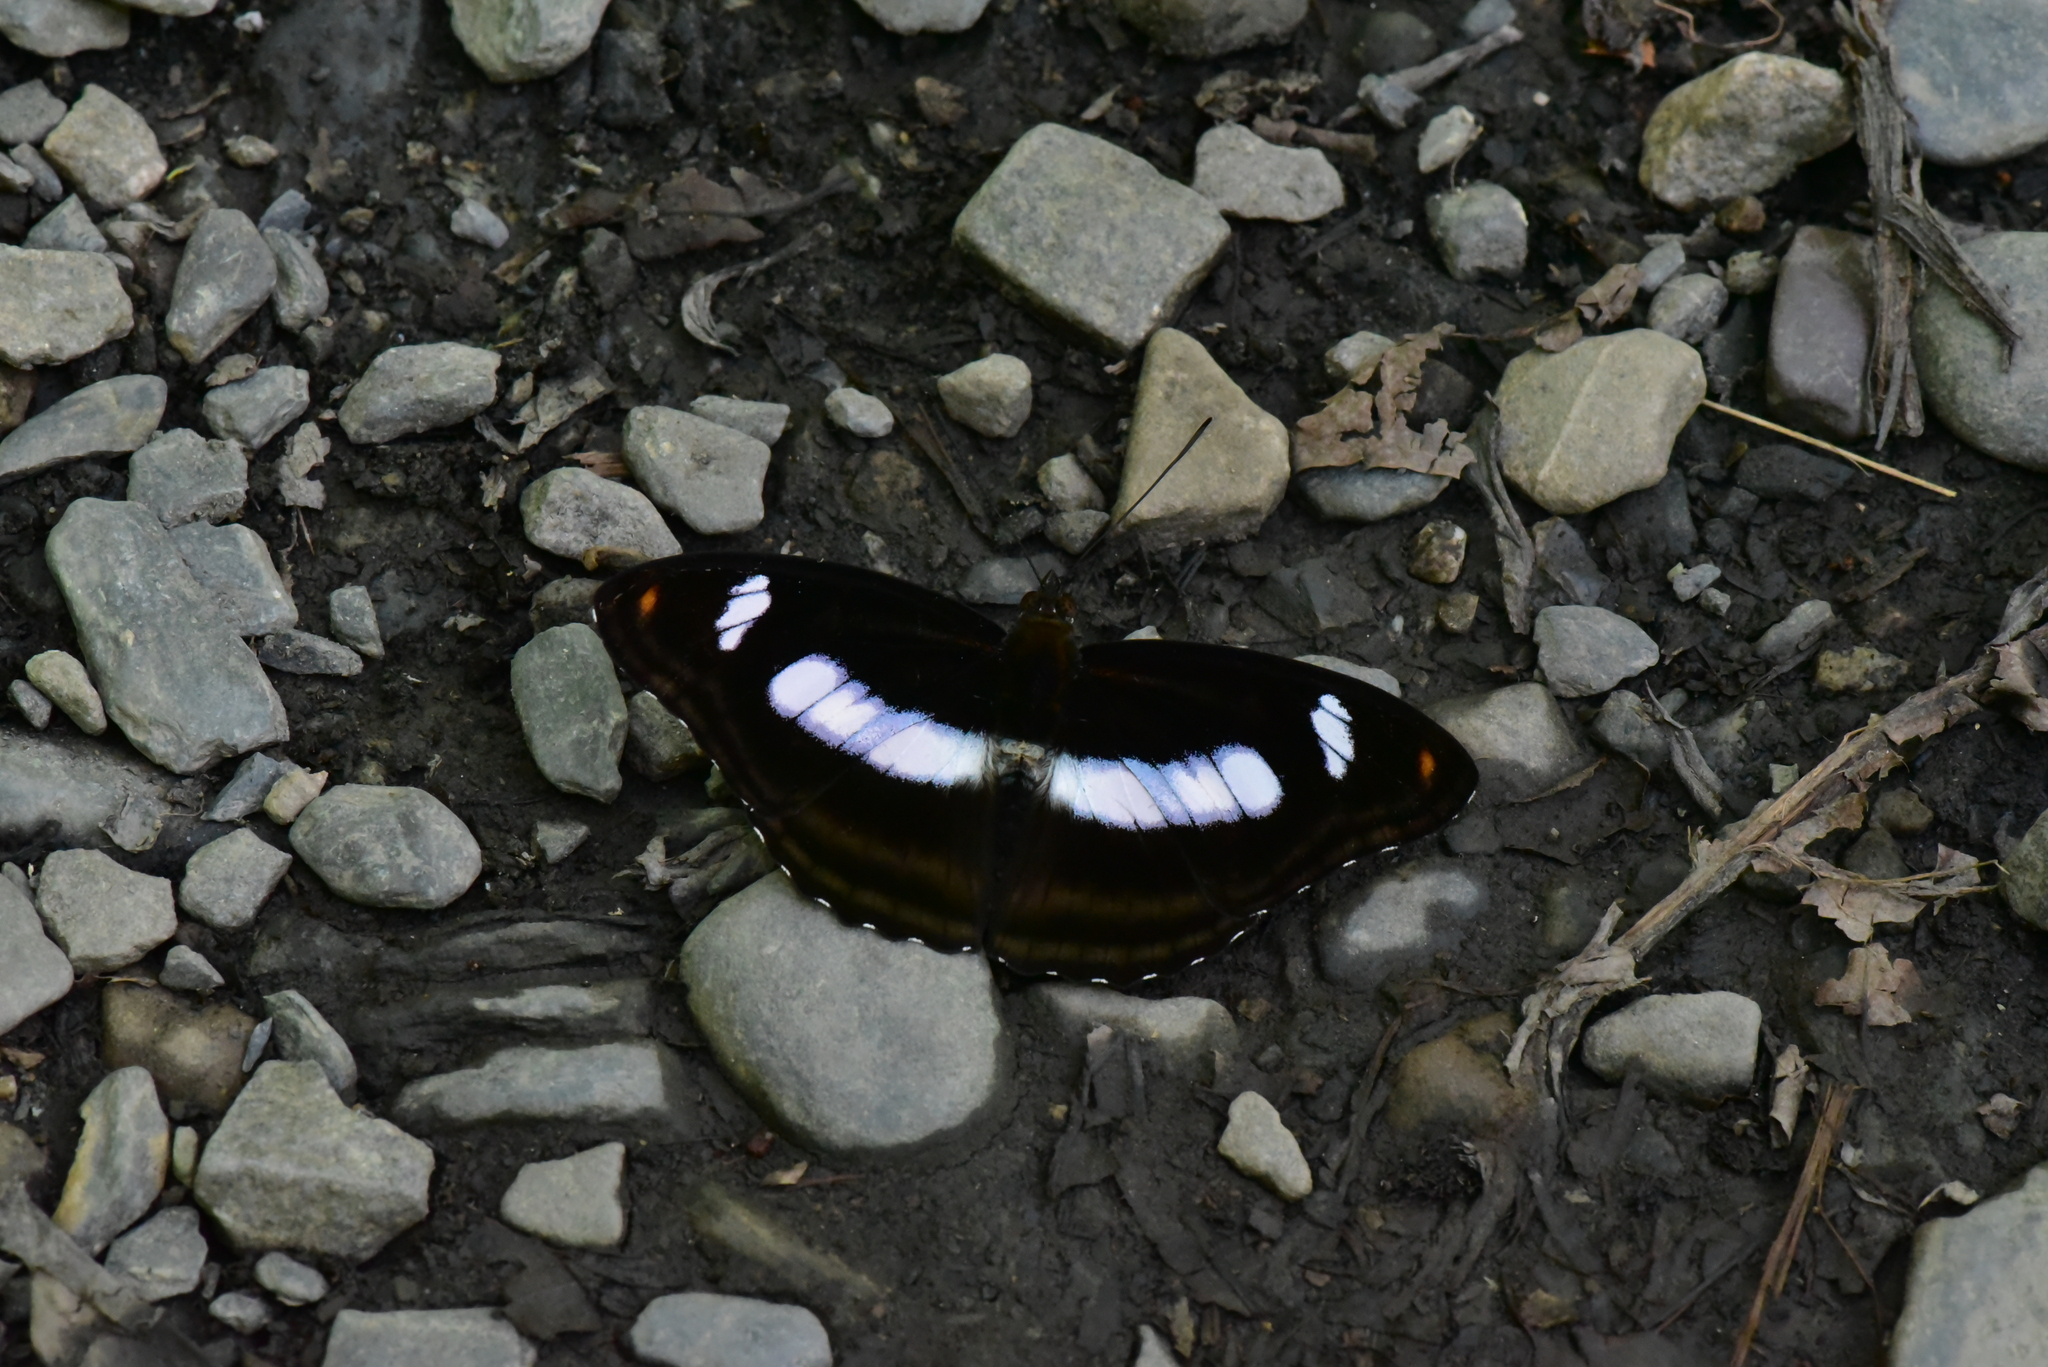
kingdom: Animalia
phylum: Arthropoda
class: Insecta
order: Lepidoptera
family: Nymphalidae
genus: Pantoporia
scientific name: Pantoporia cama
